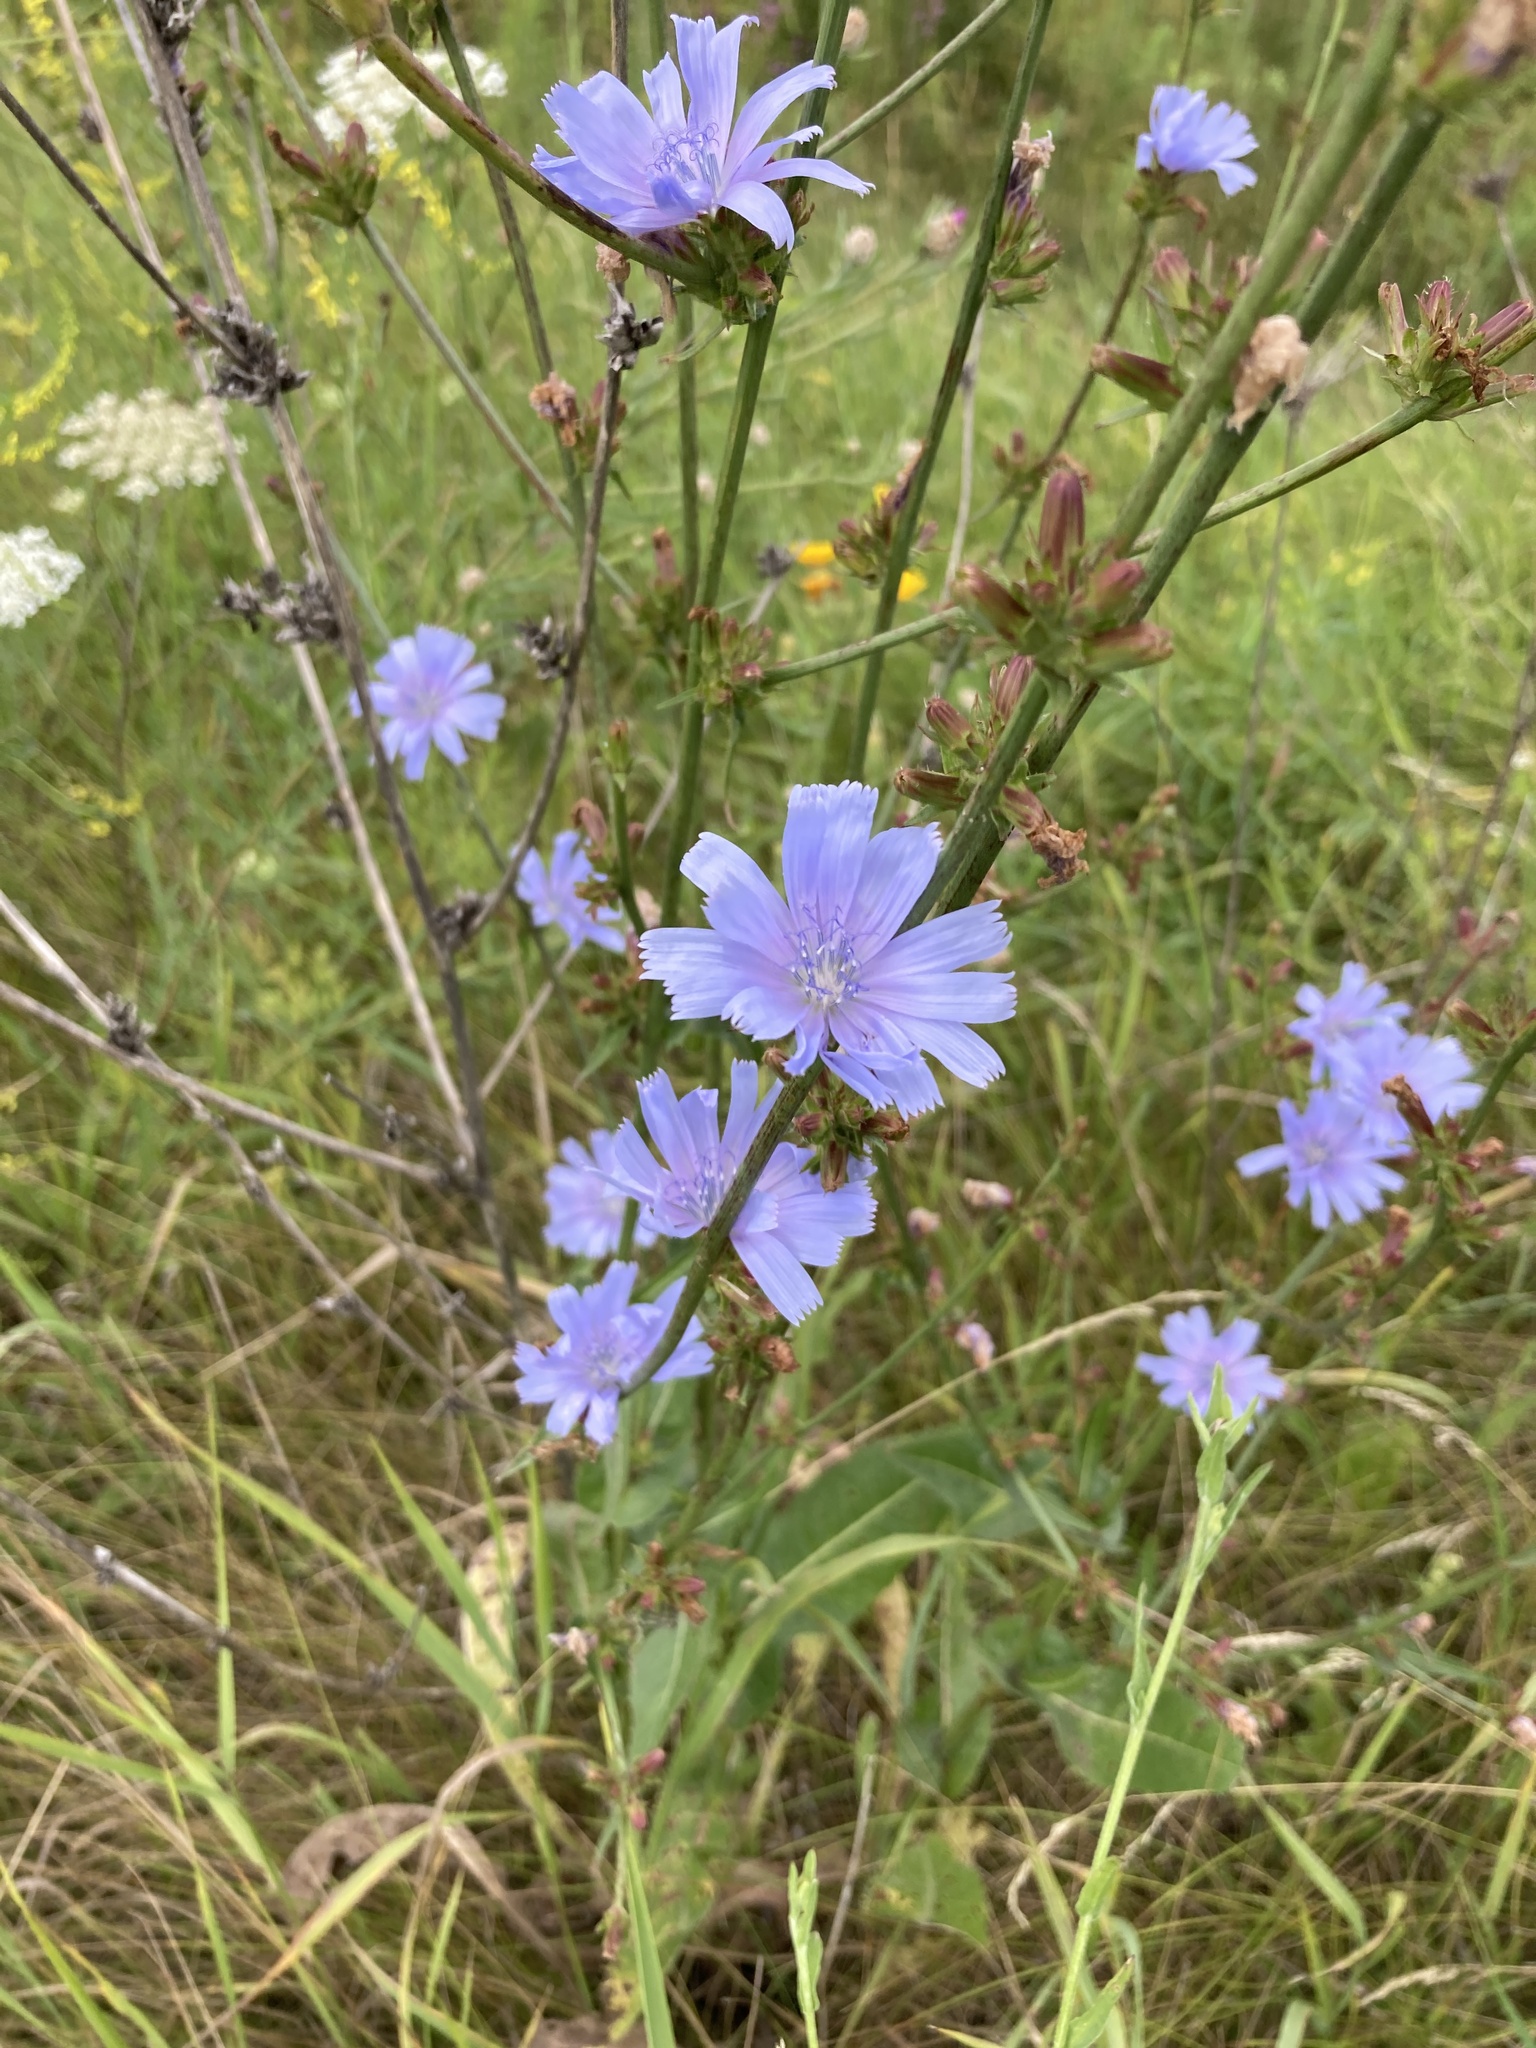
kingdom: Plantae
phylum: Tracheophyta
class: Magnoliopsida
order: Asterales
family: Asteraceae
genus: Cichorium
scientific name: Cichorium intybus
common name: Chicory
